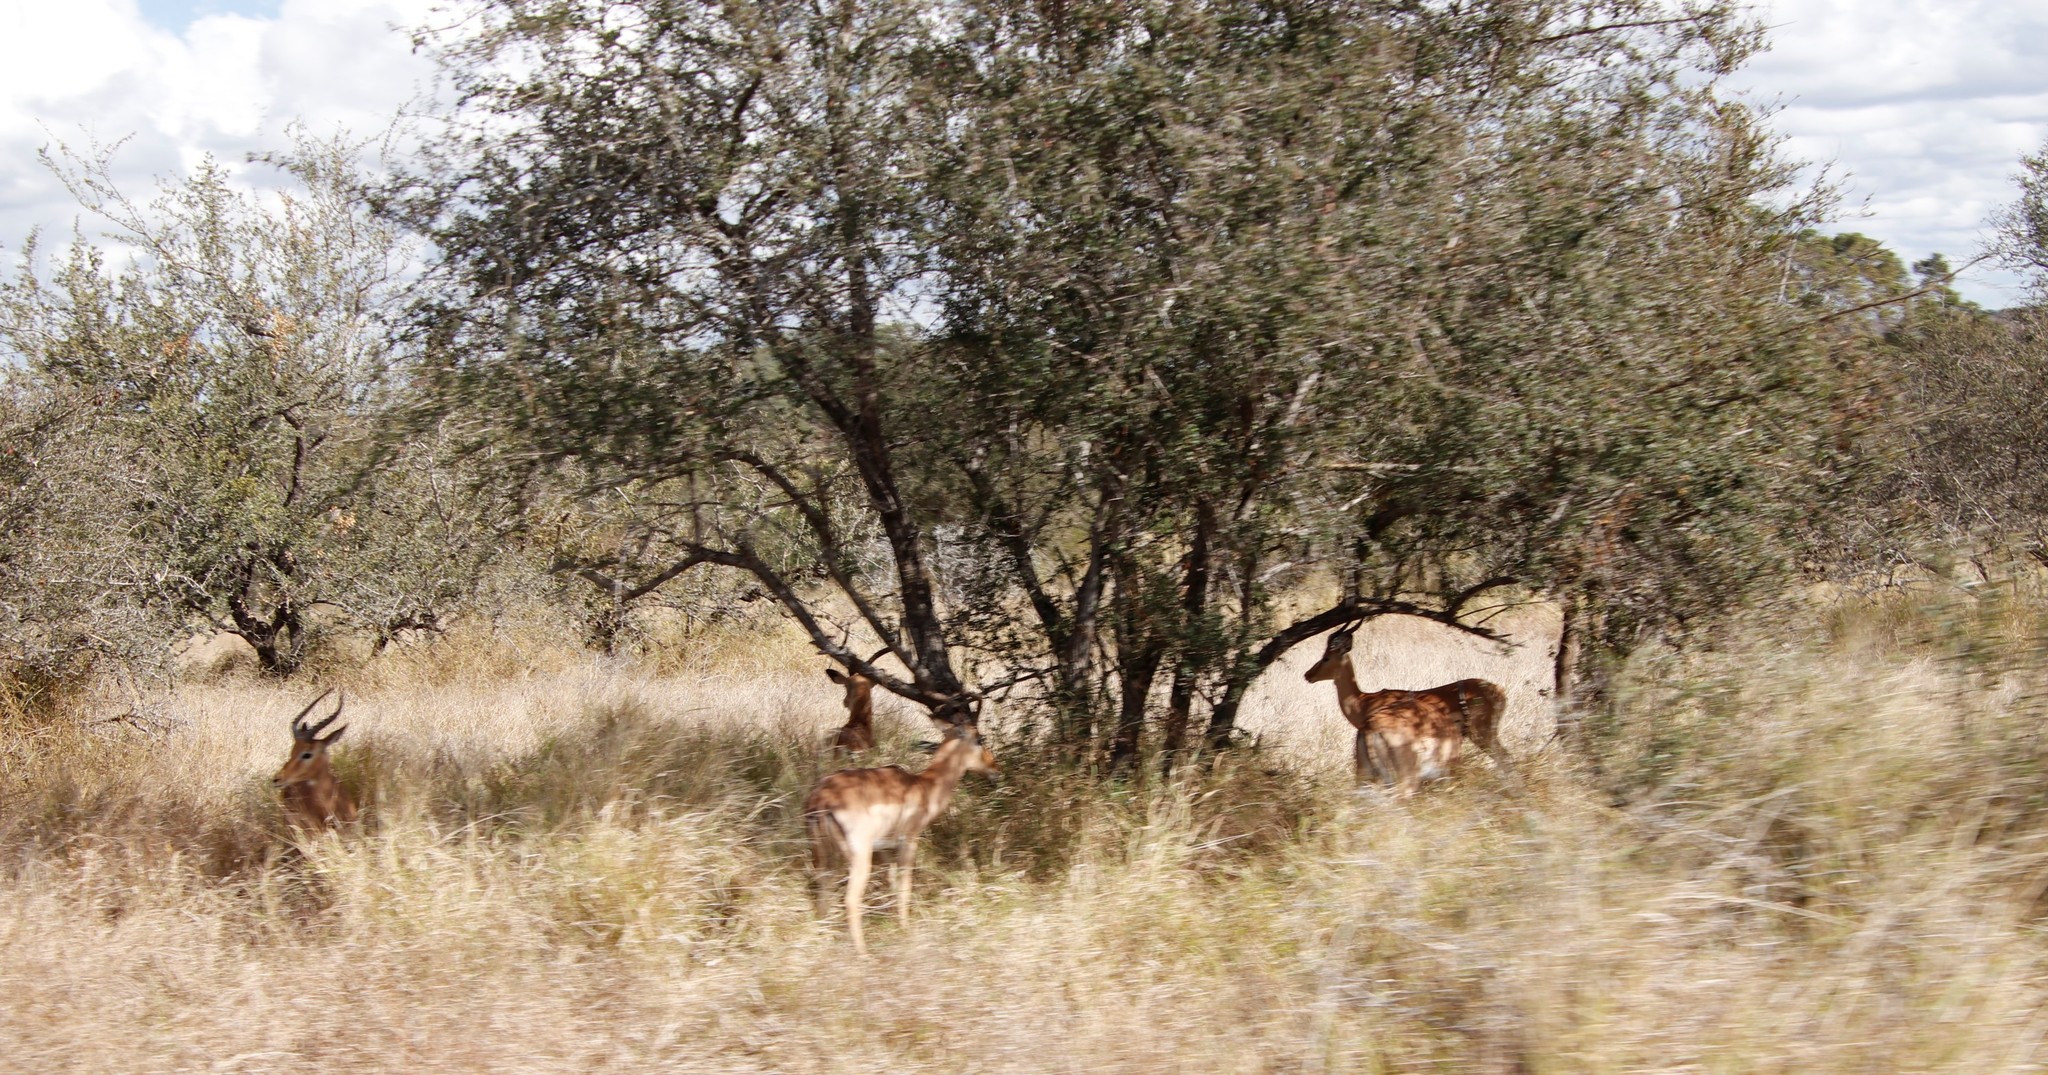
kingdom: Animalia
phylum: Chordata
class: Mammalia
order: Artiodactyla
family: Bovidae
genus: Aepyceros
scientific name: Aepyceros melampus
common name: Impala
